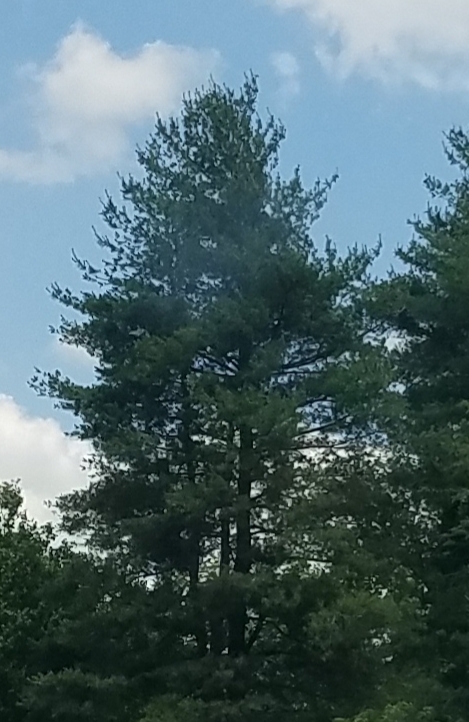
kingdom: Plantae
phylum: Tracheophyta
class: Pinopsida
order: Pinales
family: Pinaceae
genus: Pinus
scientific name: Pinus strobus
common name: Weymouth pine
